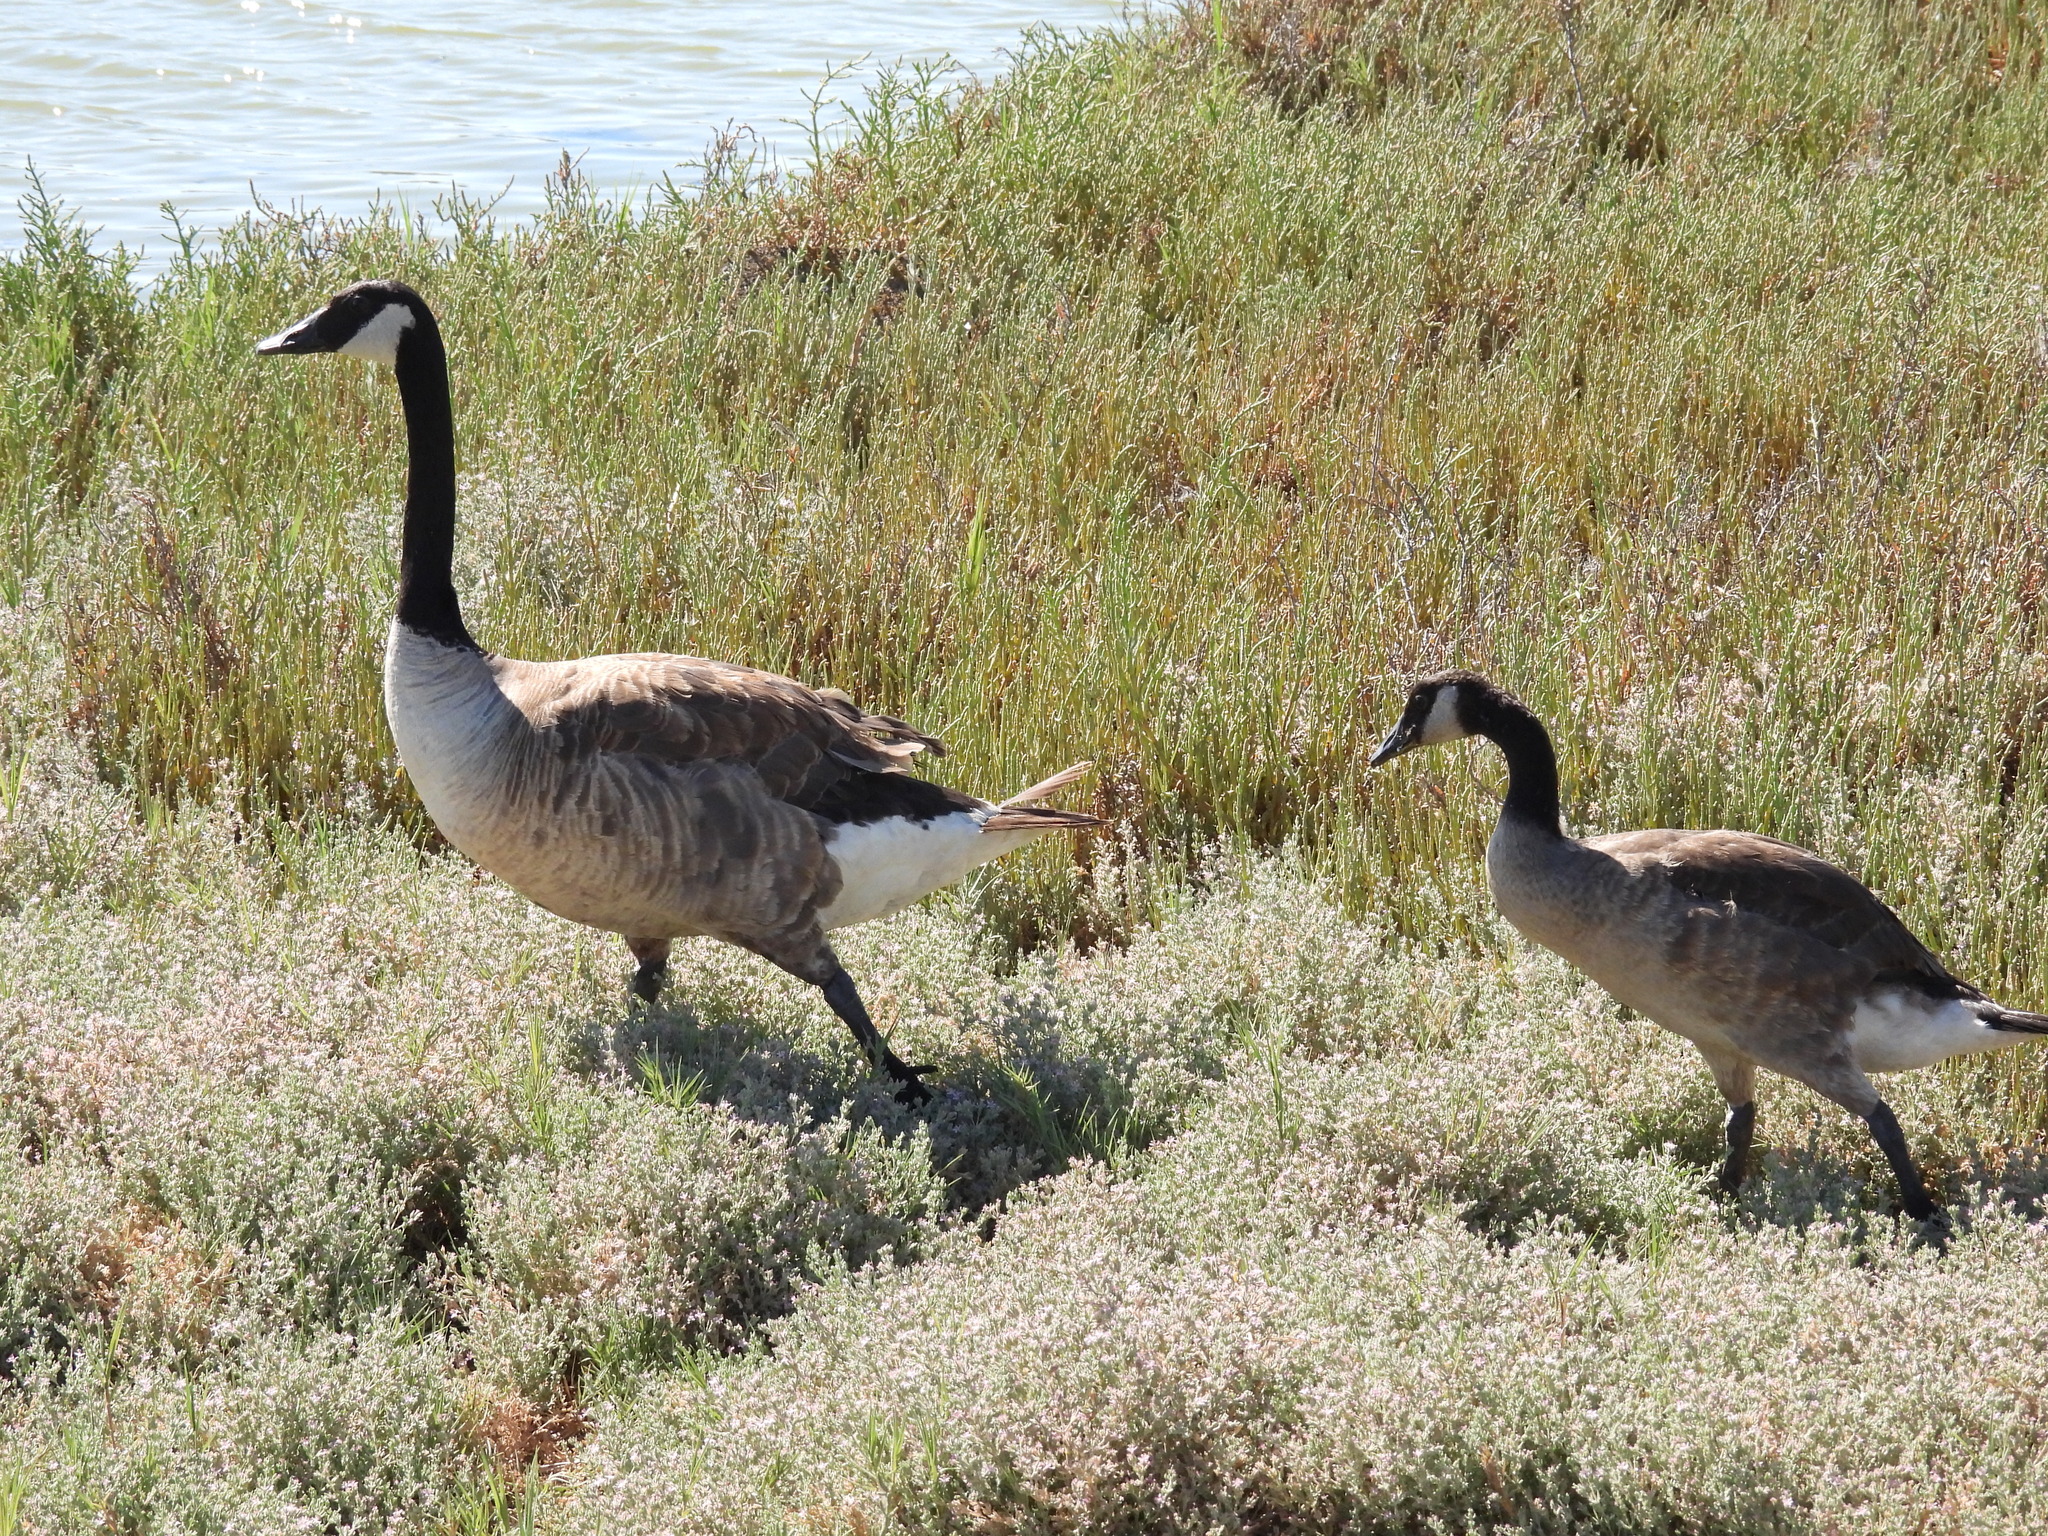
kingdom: Animalia
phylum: Chordata
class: Aves
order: Anseriformes
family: Anatidae
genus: Branta
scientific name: Branta canadensis
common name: Canada goose
